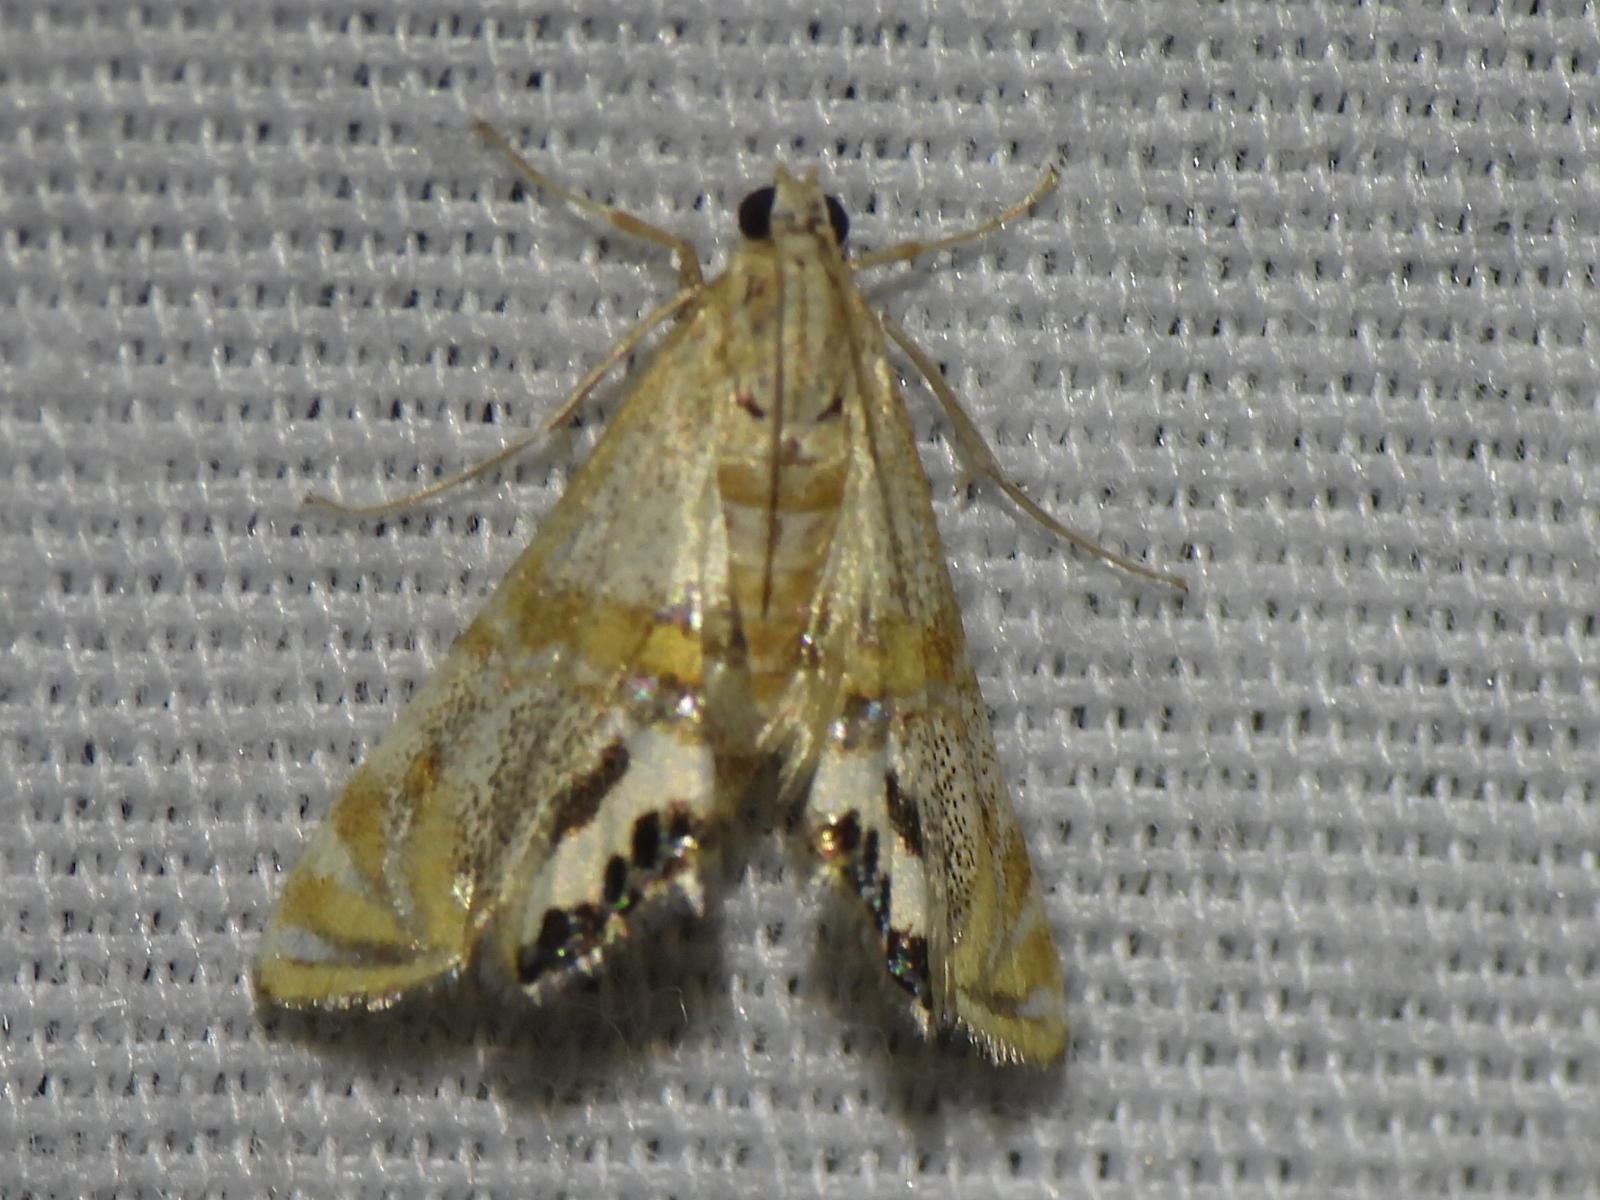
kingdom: Animalia
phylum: Arthropoda
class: Insecta
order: Lepidoptera
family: Crambidae
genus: Petrophila
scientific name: Petrophila bifascialis
